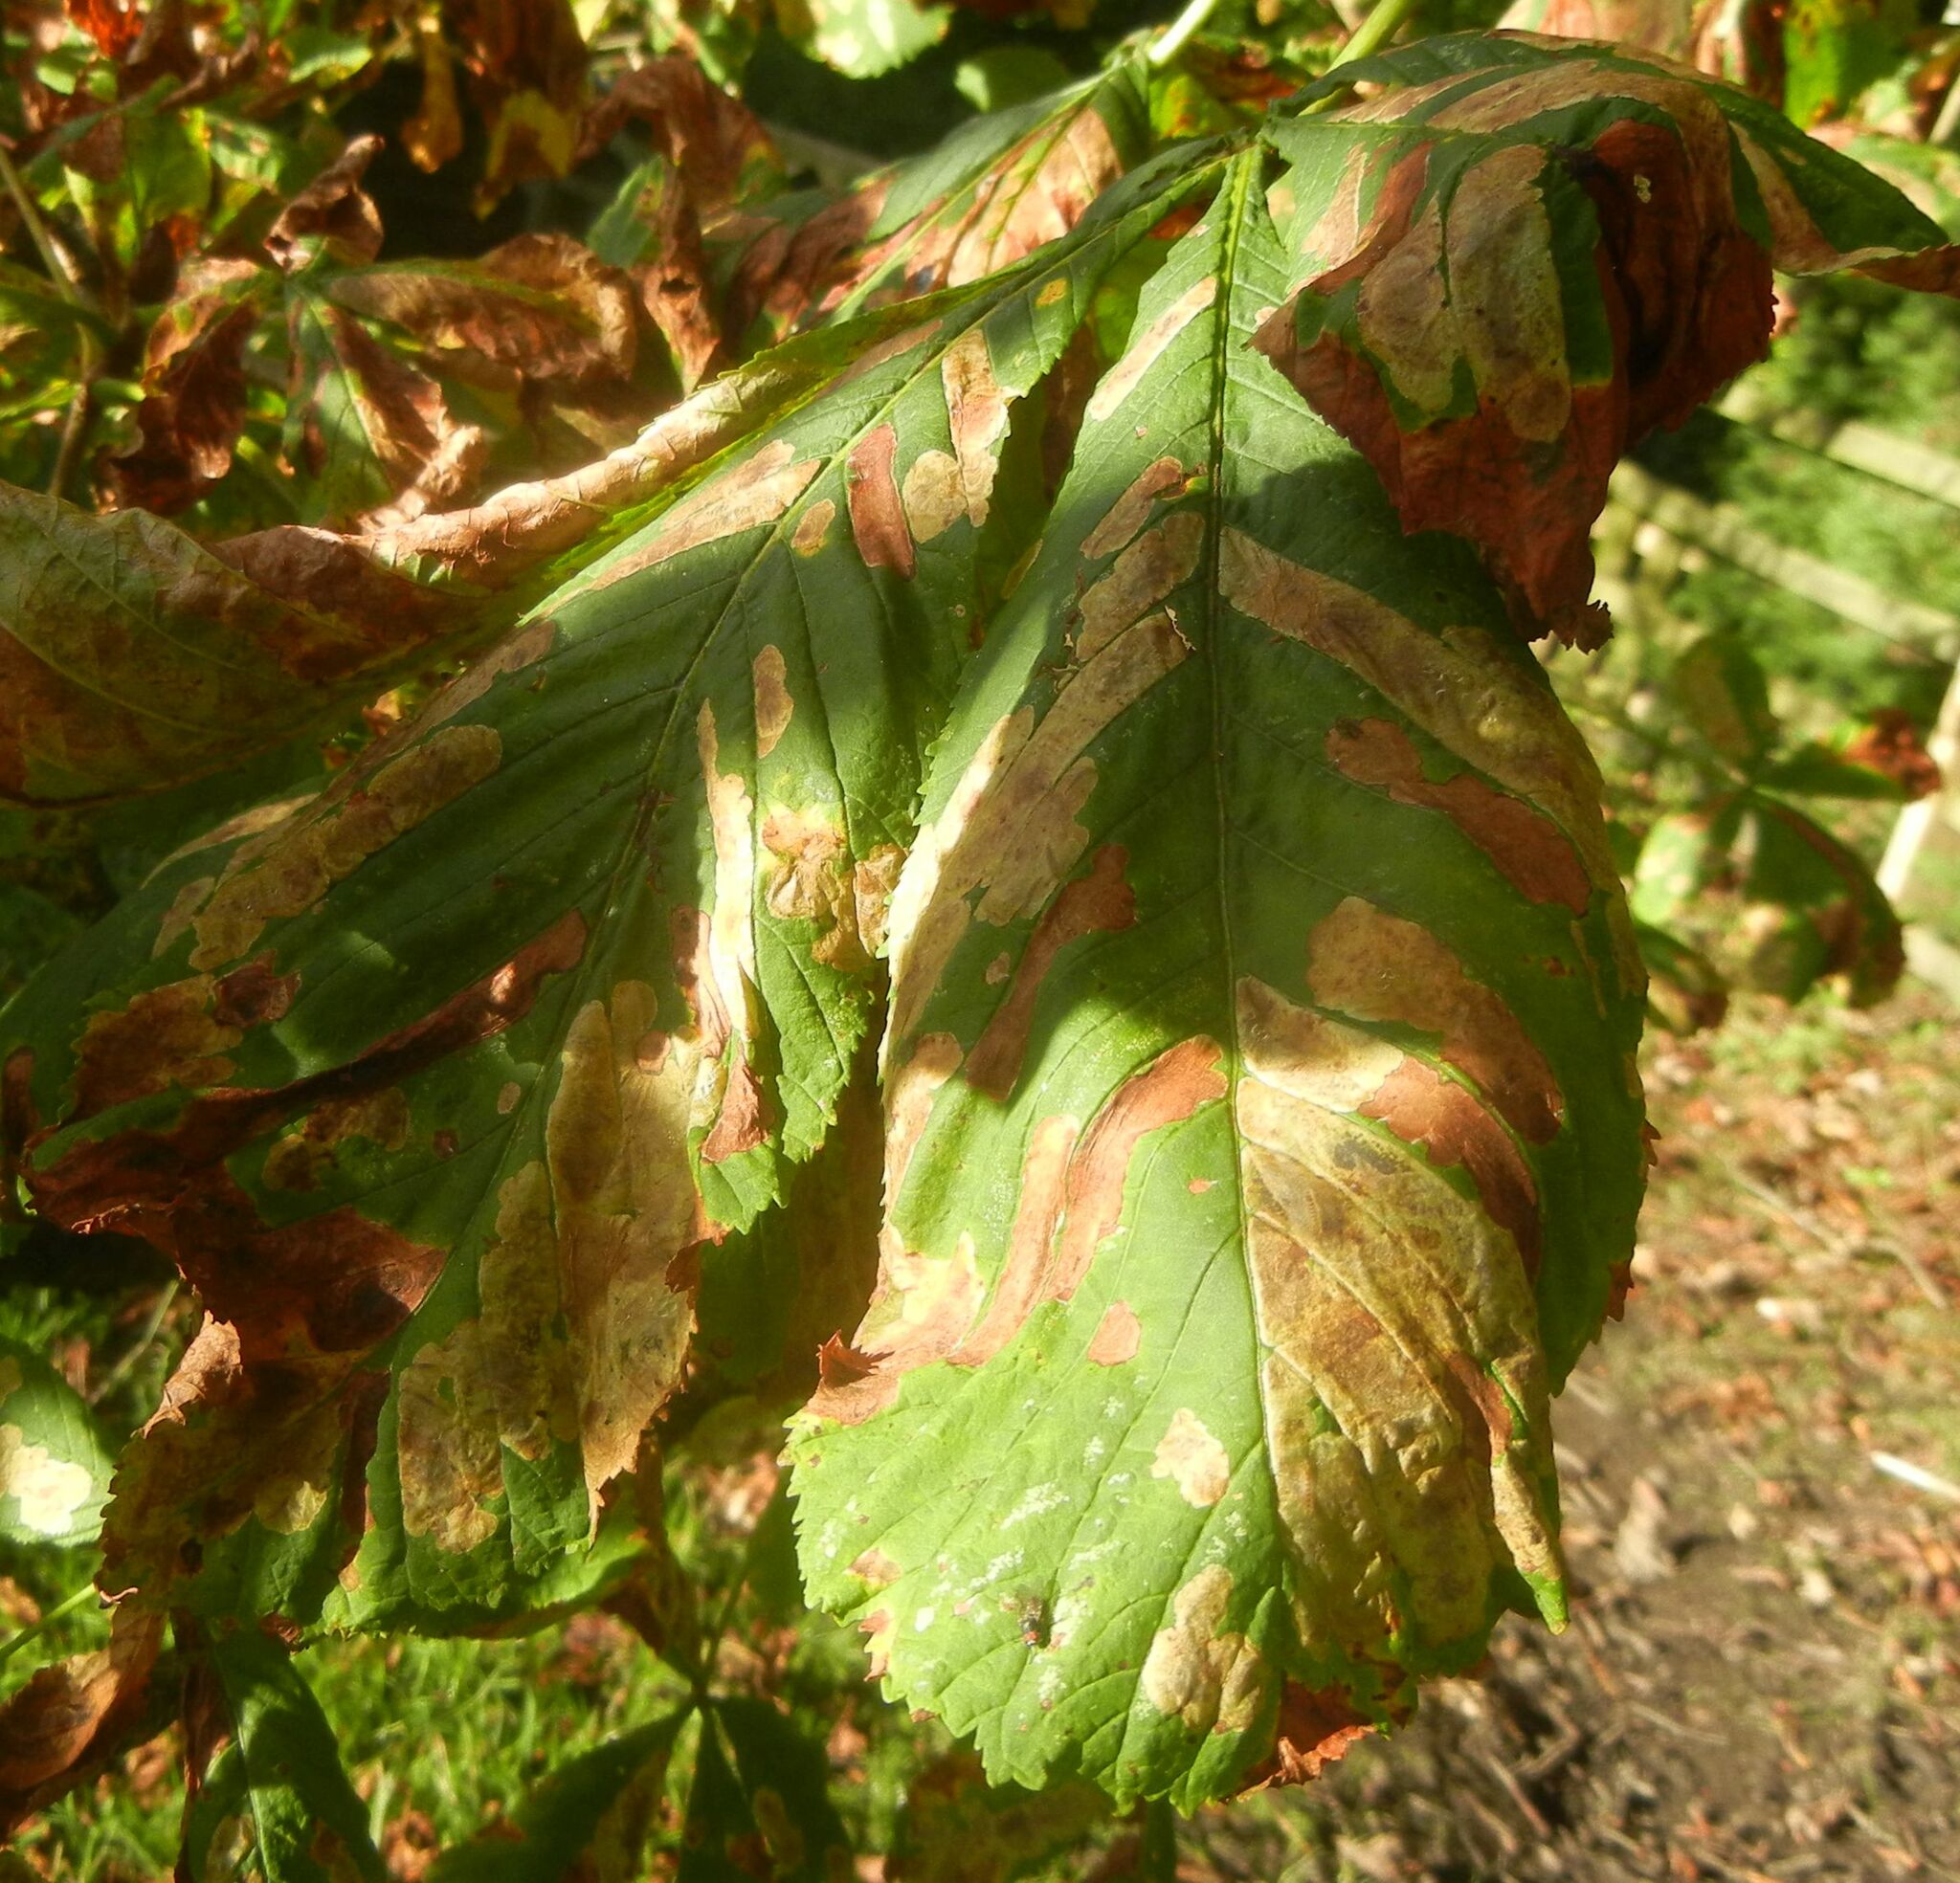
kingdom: Animalia
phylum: Arthropoda
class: Insecta
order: Lepidoptera
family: Gracillariidae
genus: Cameraria
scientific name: Cameraria ohridella
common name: Horse-chestnut leaf-miner
